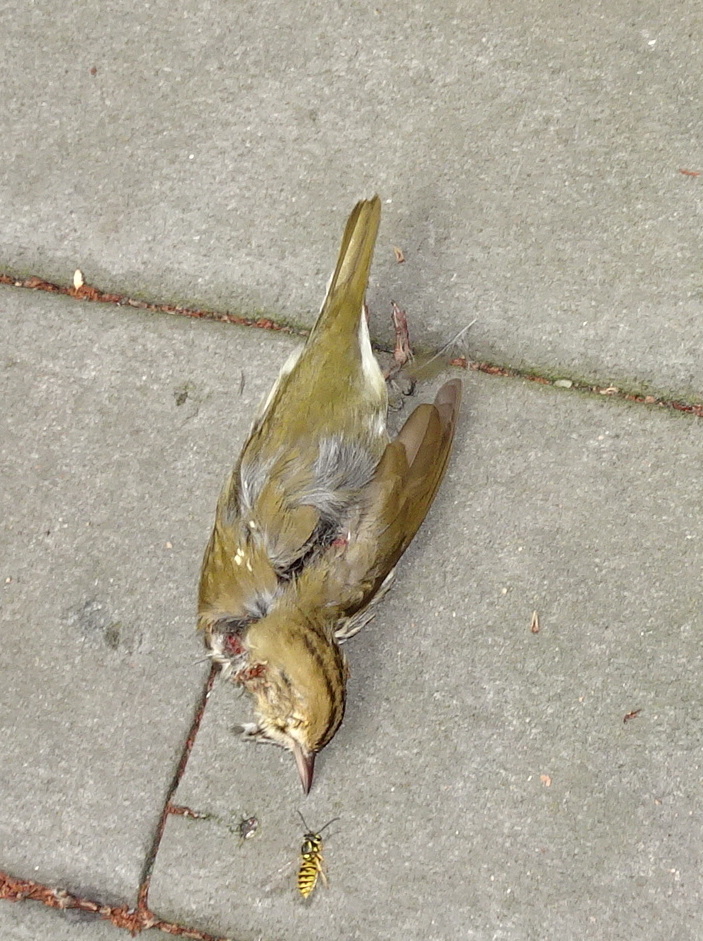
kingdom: Animalia
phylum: Chordata
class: Aves
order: Passeriformes
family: Parulidae
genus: Seiurus
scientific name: Seiurus aurocapilla
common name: Ovenbird
